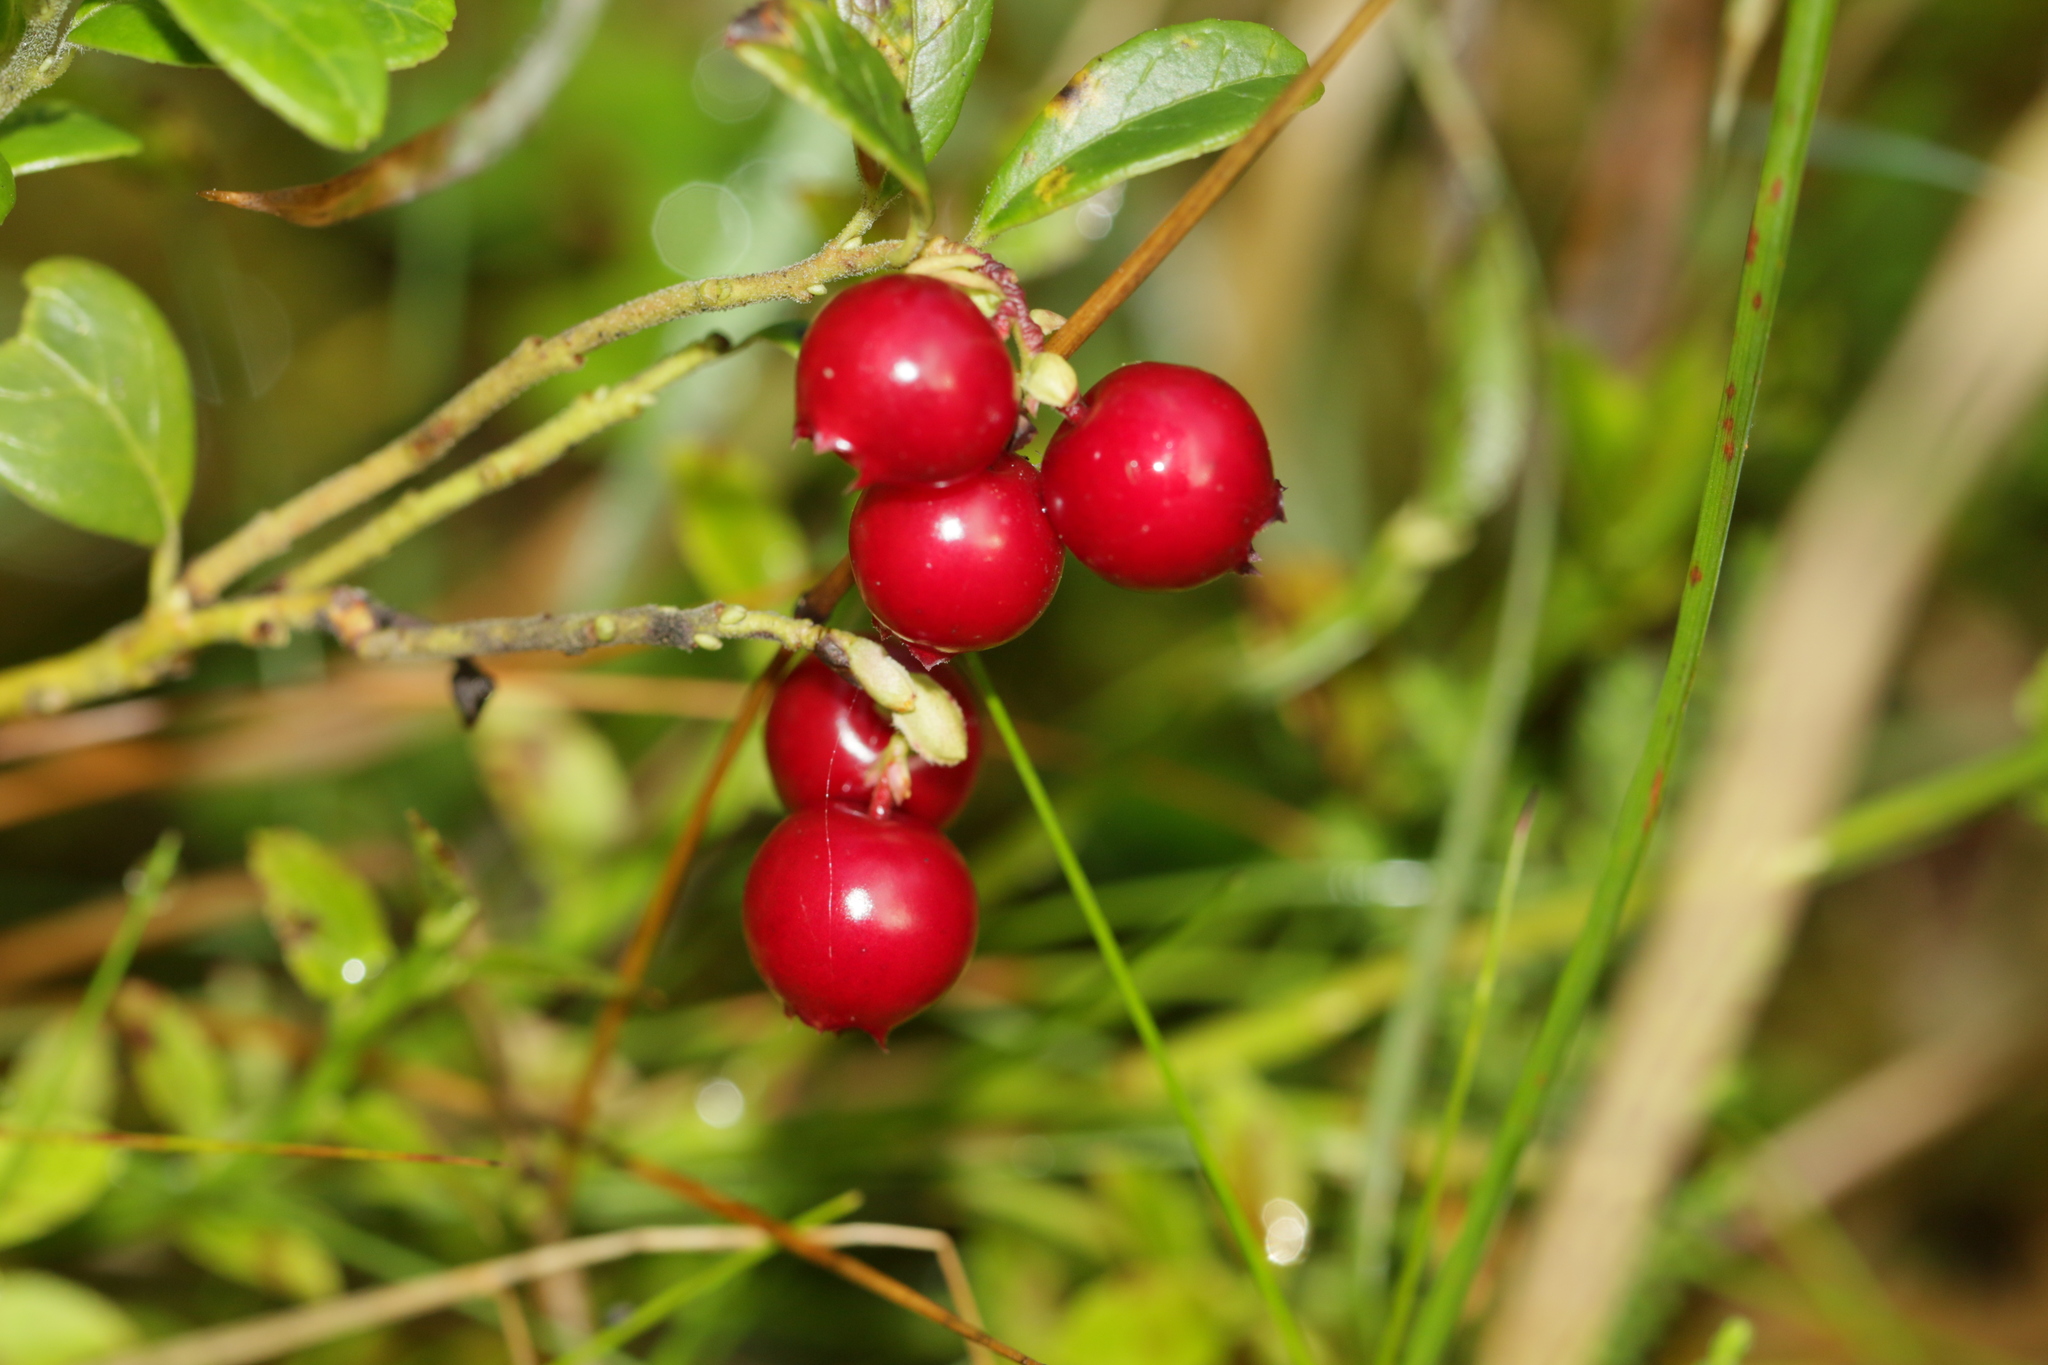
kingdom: Plantae
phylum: Tracheophyta
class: Magnoliopsida
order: Ericales
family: Ericaceae
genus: Vaccinium
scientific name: Vaccinium vitis-idaea
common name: Cowberry
